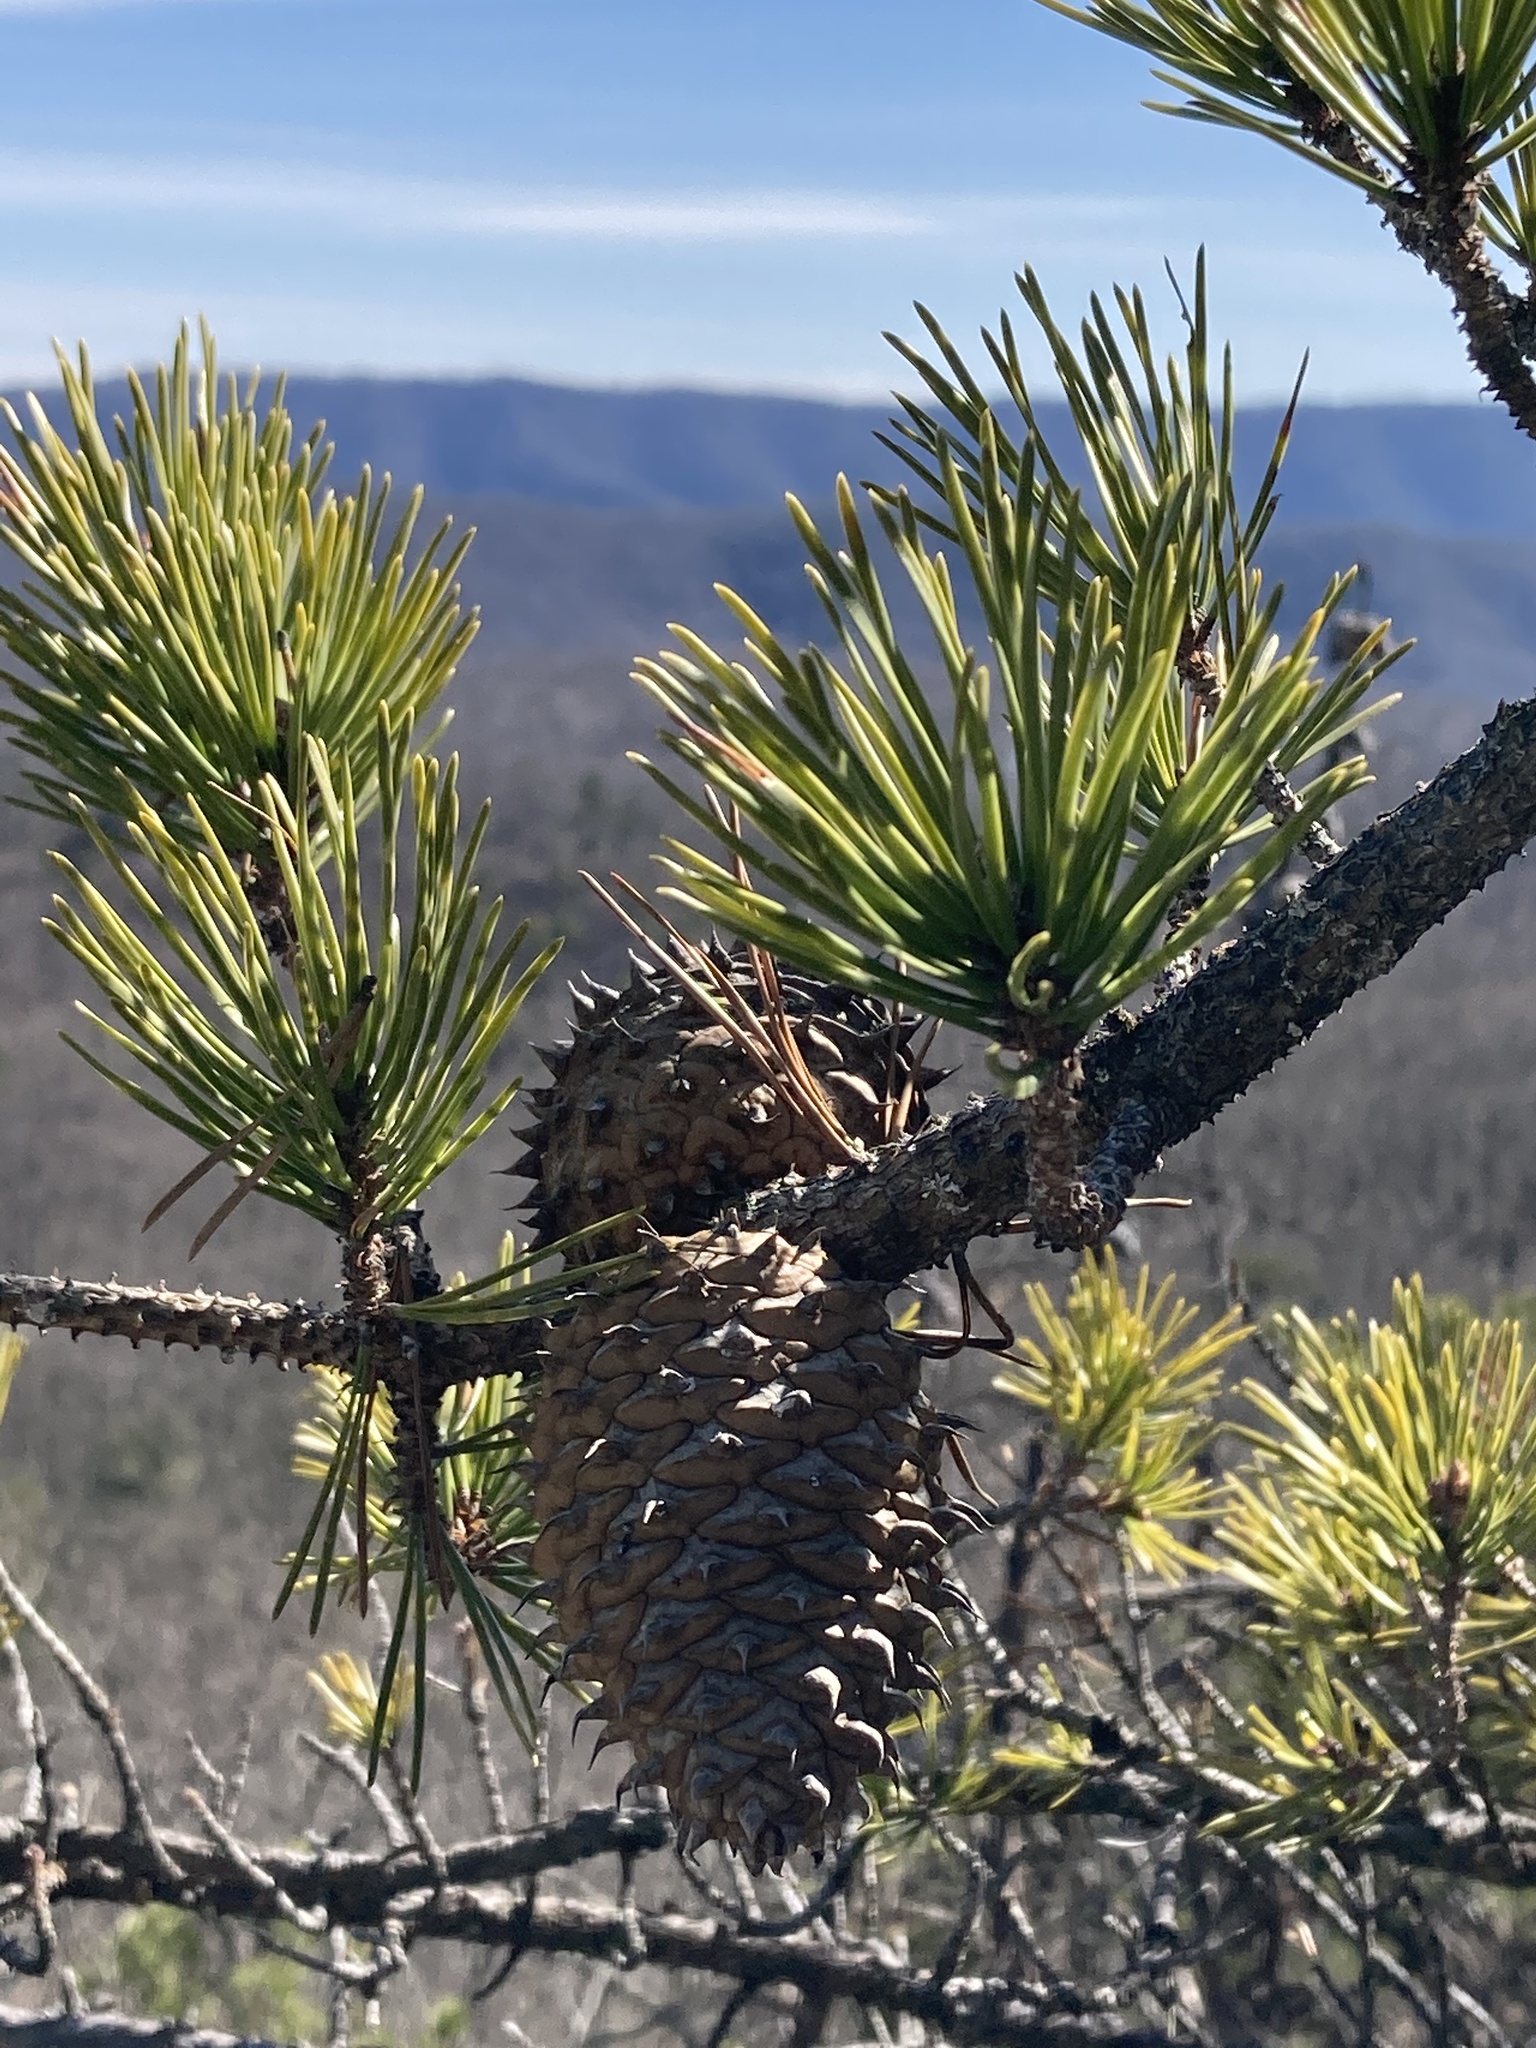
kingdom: Plantae
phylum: Tracheophyta
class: Pinopsida
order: Pinales
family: Pinaceae
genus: Pinus
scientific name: Pinus pungens
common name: Hickory pine
